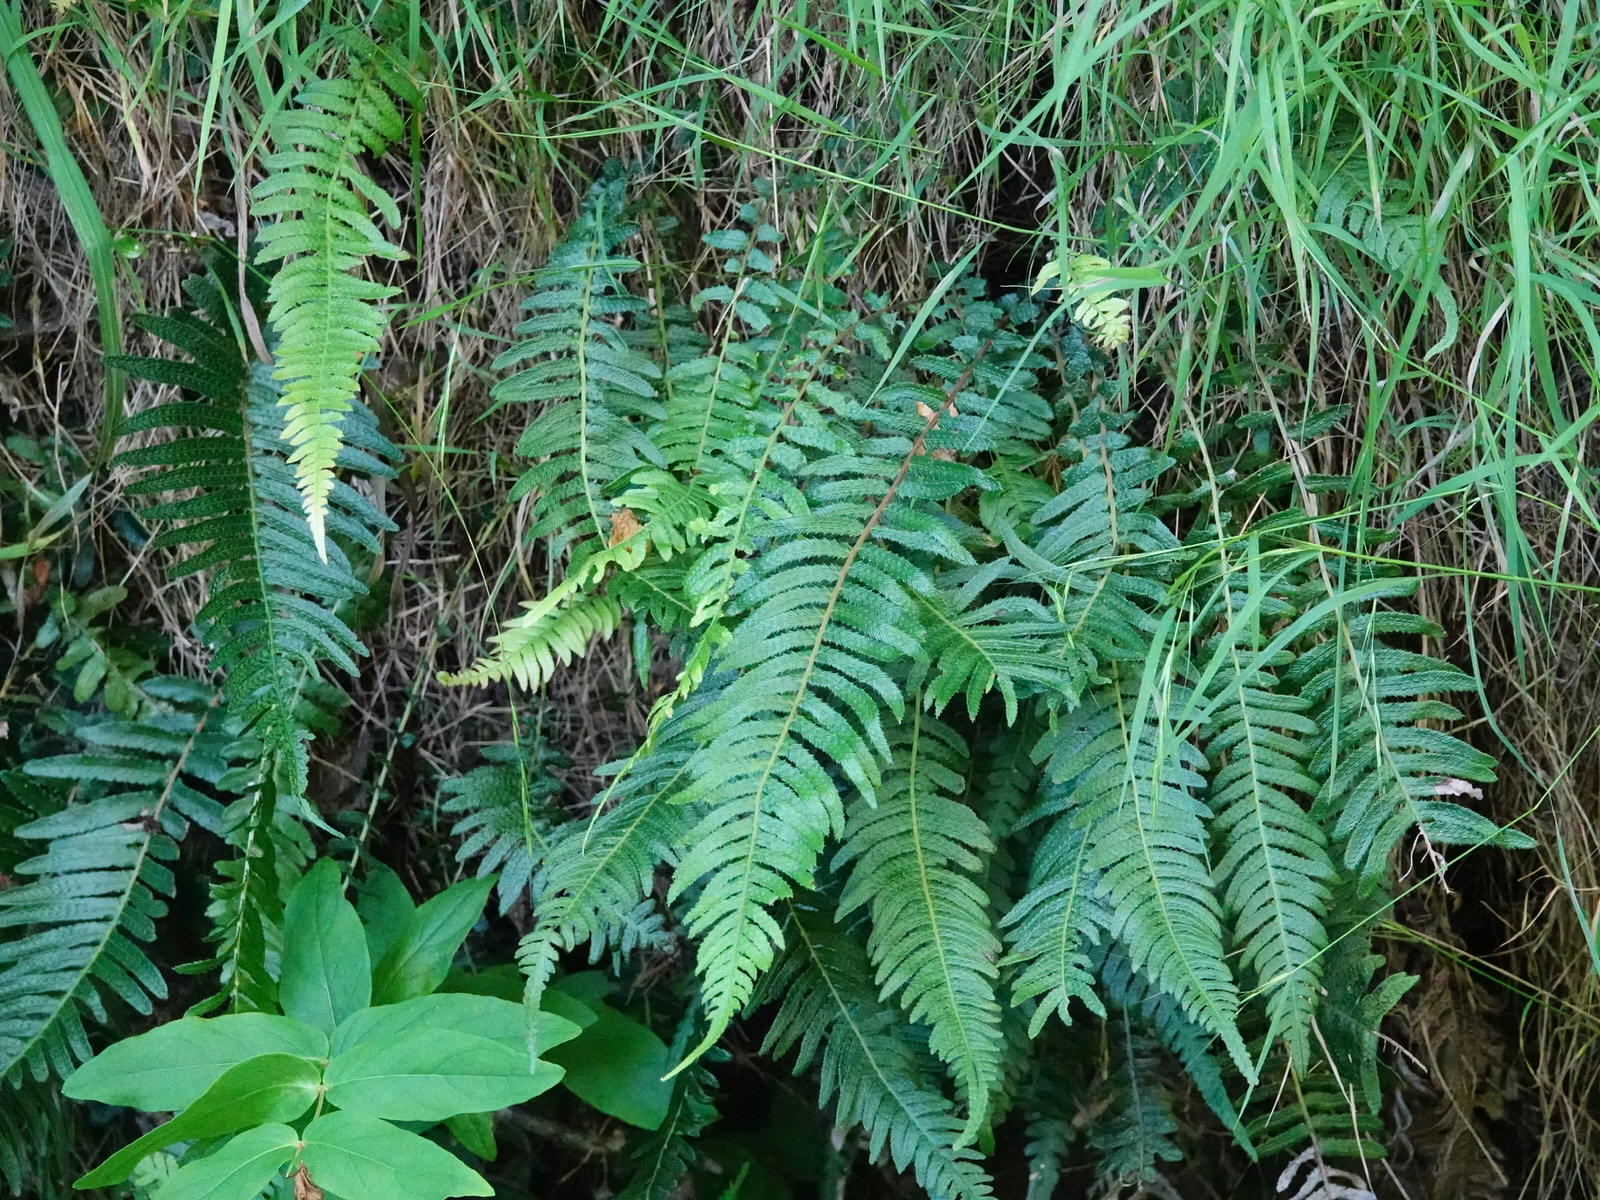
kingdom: Plantae
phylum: Tracheophyta
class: Polypodiopsida
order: Polypodiales
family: Blechnaceae
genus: Doodia
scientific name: Doodia australis
